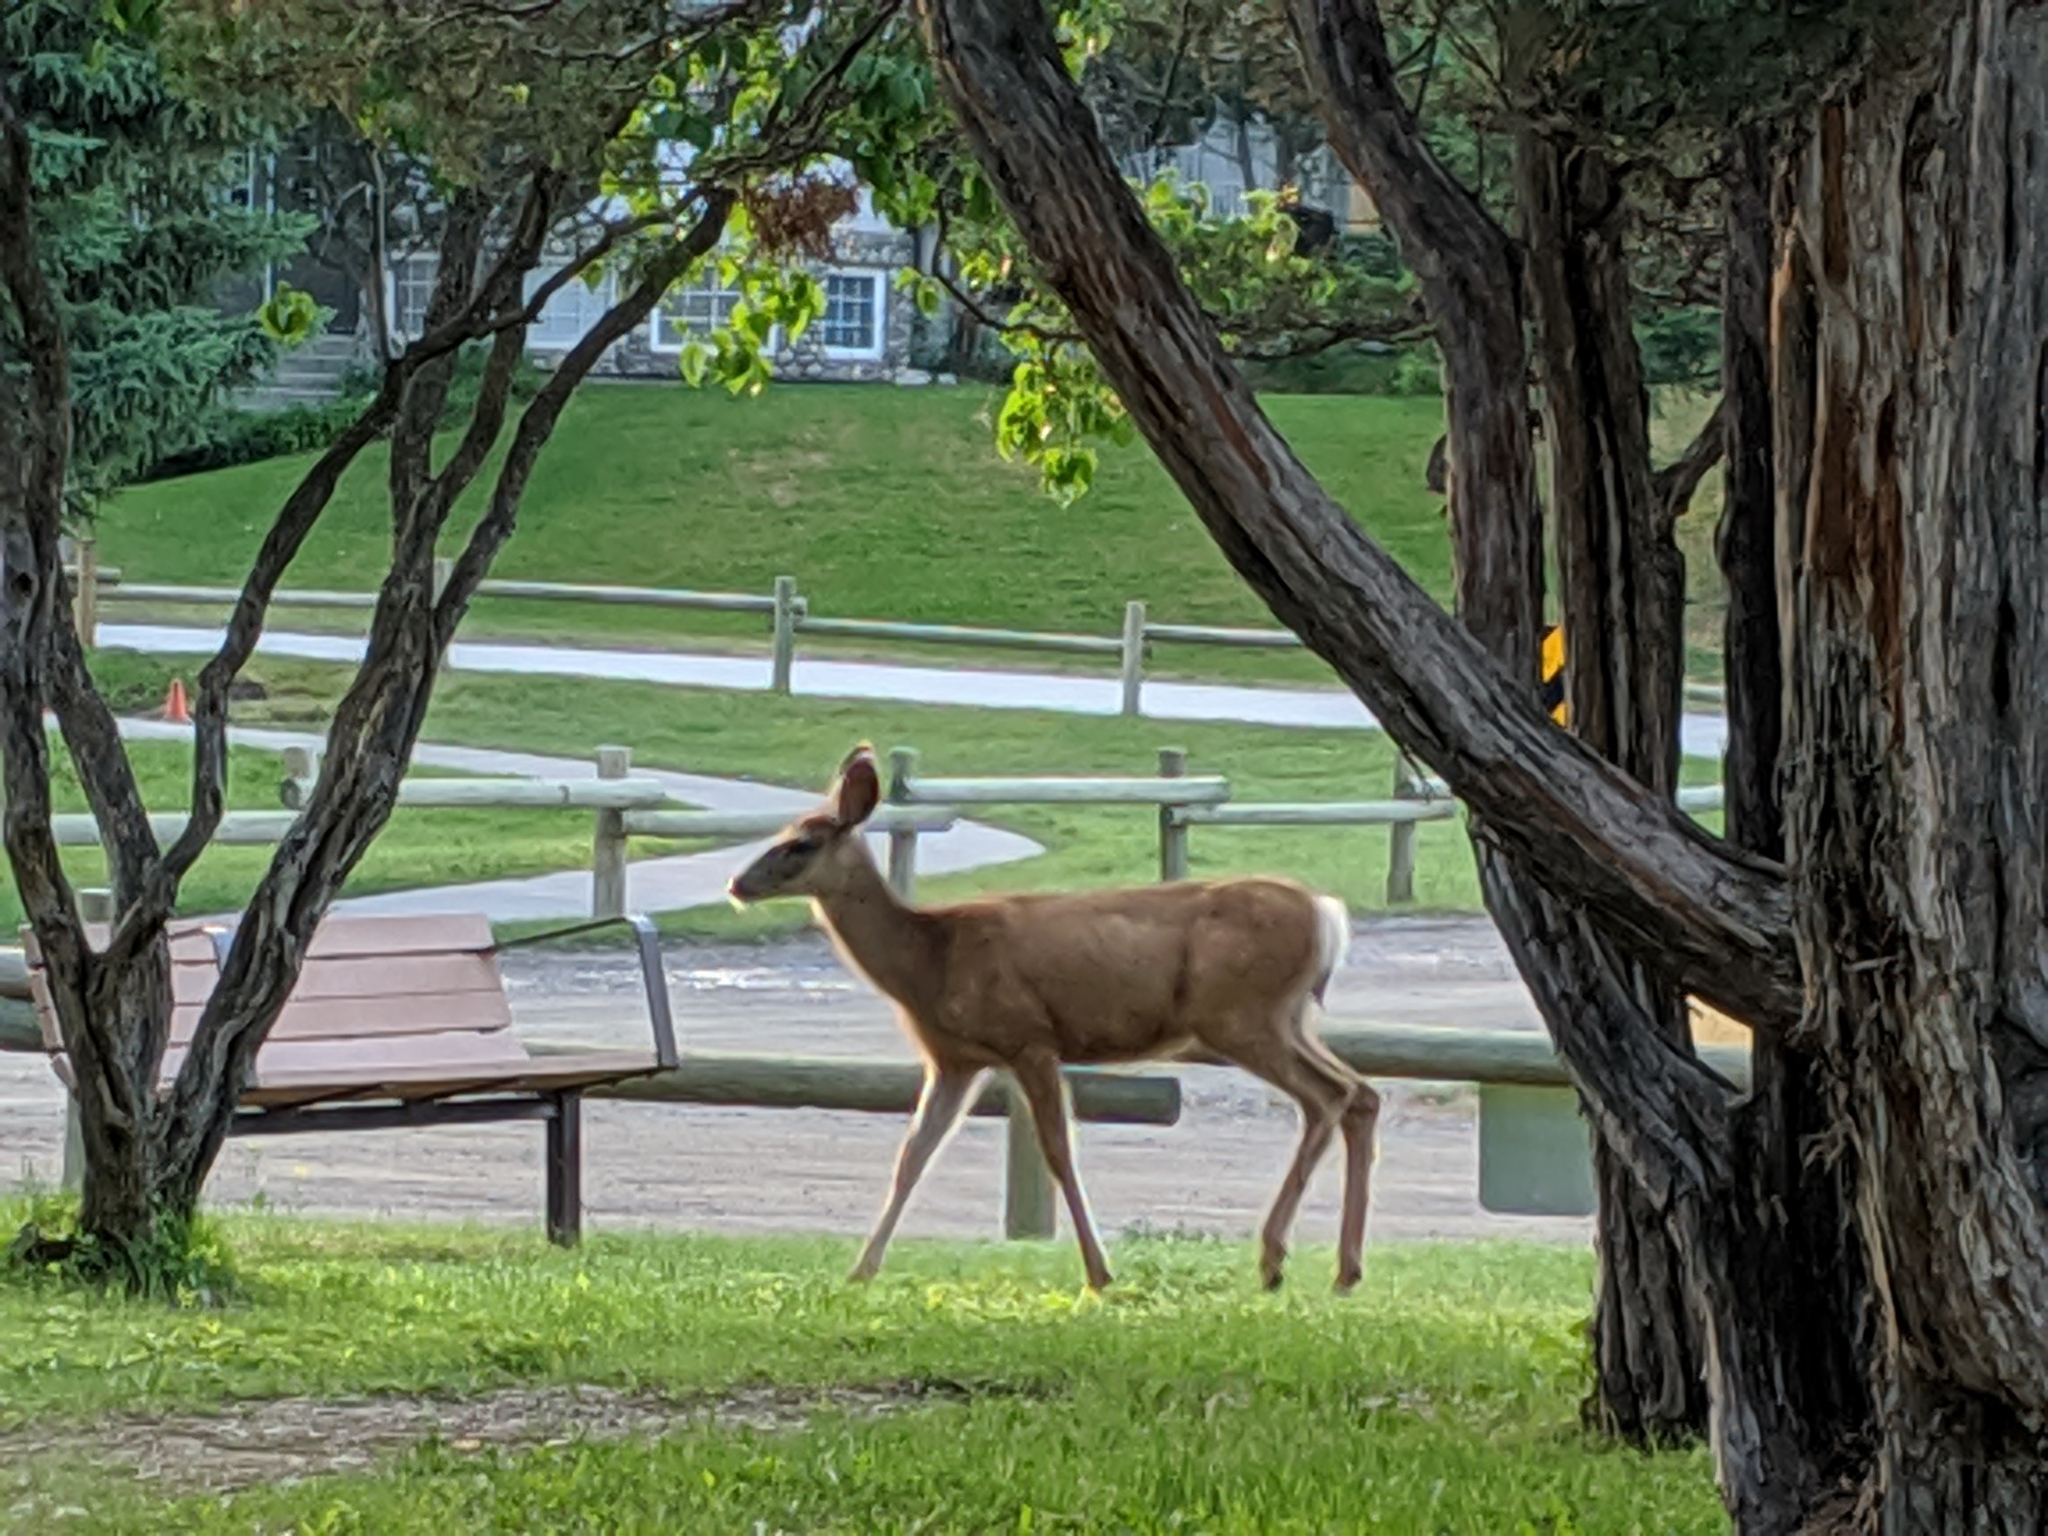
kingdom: Animalia
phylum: Chordata
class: Mammalia
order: Artiodactyla
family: Cervidae
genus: Odocoileus
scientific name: Odocoileus hemionus
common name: Mule deer
